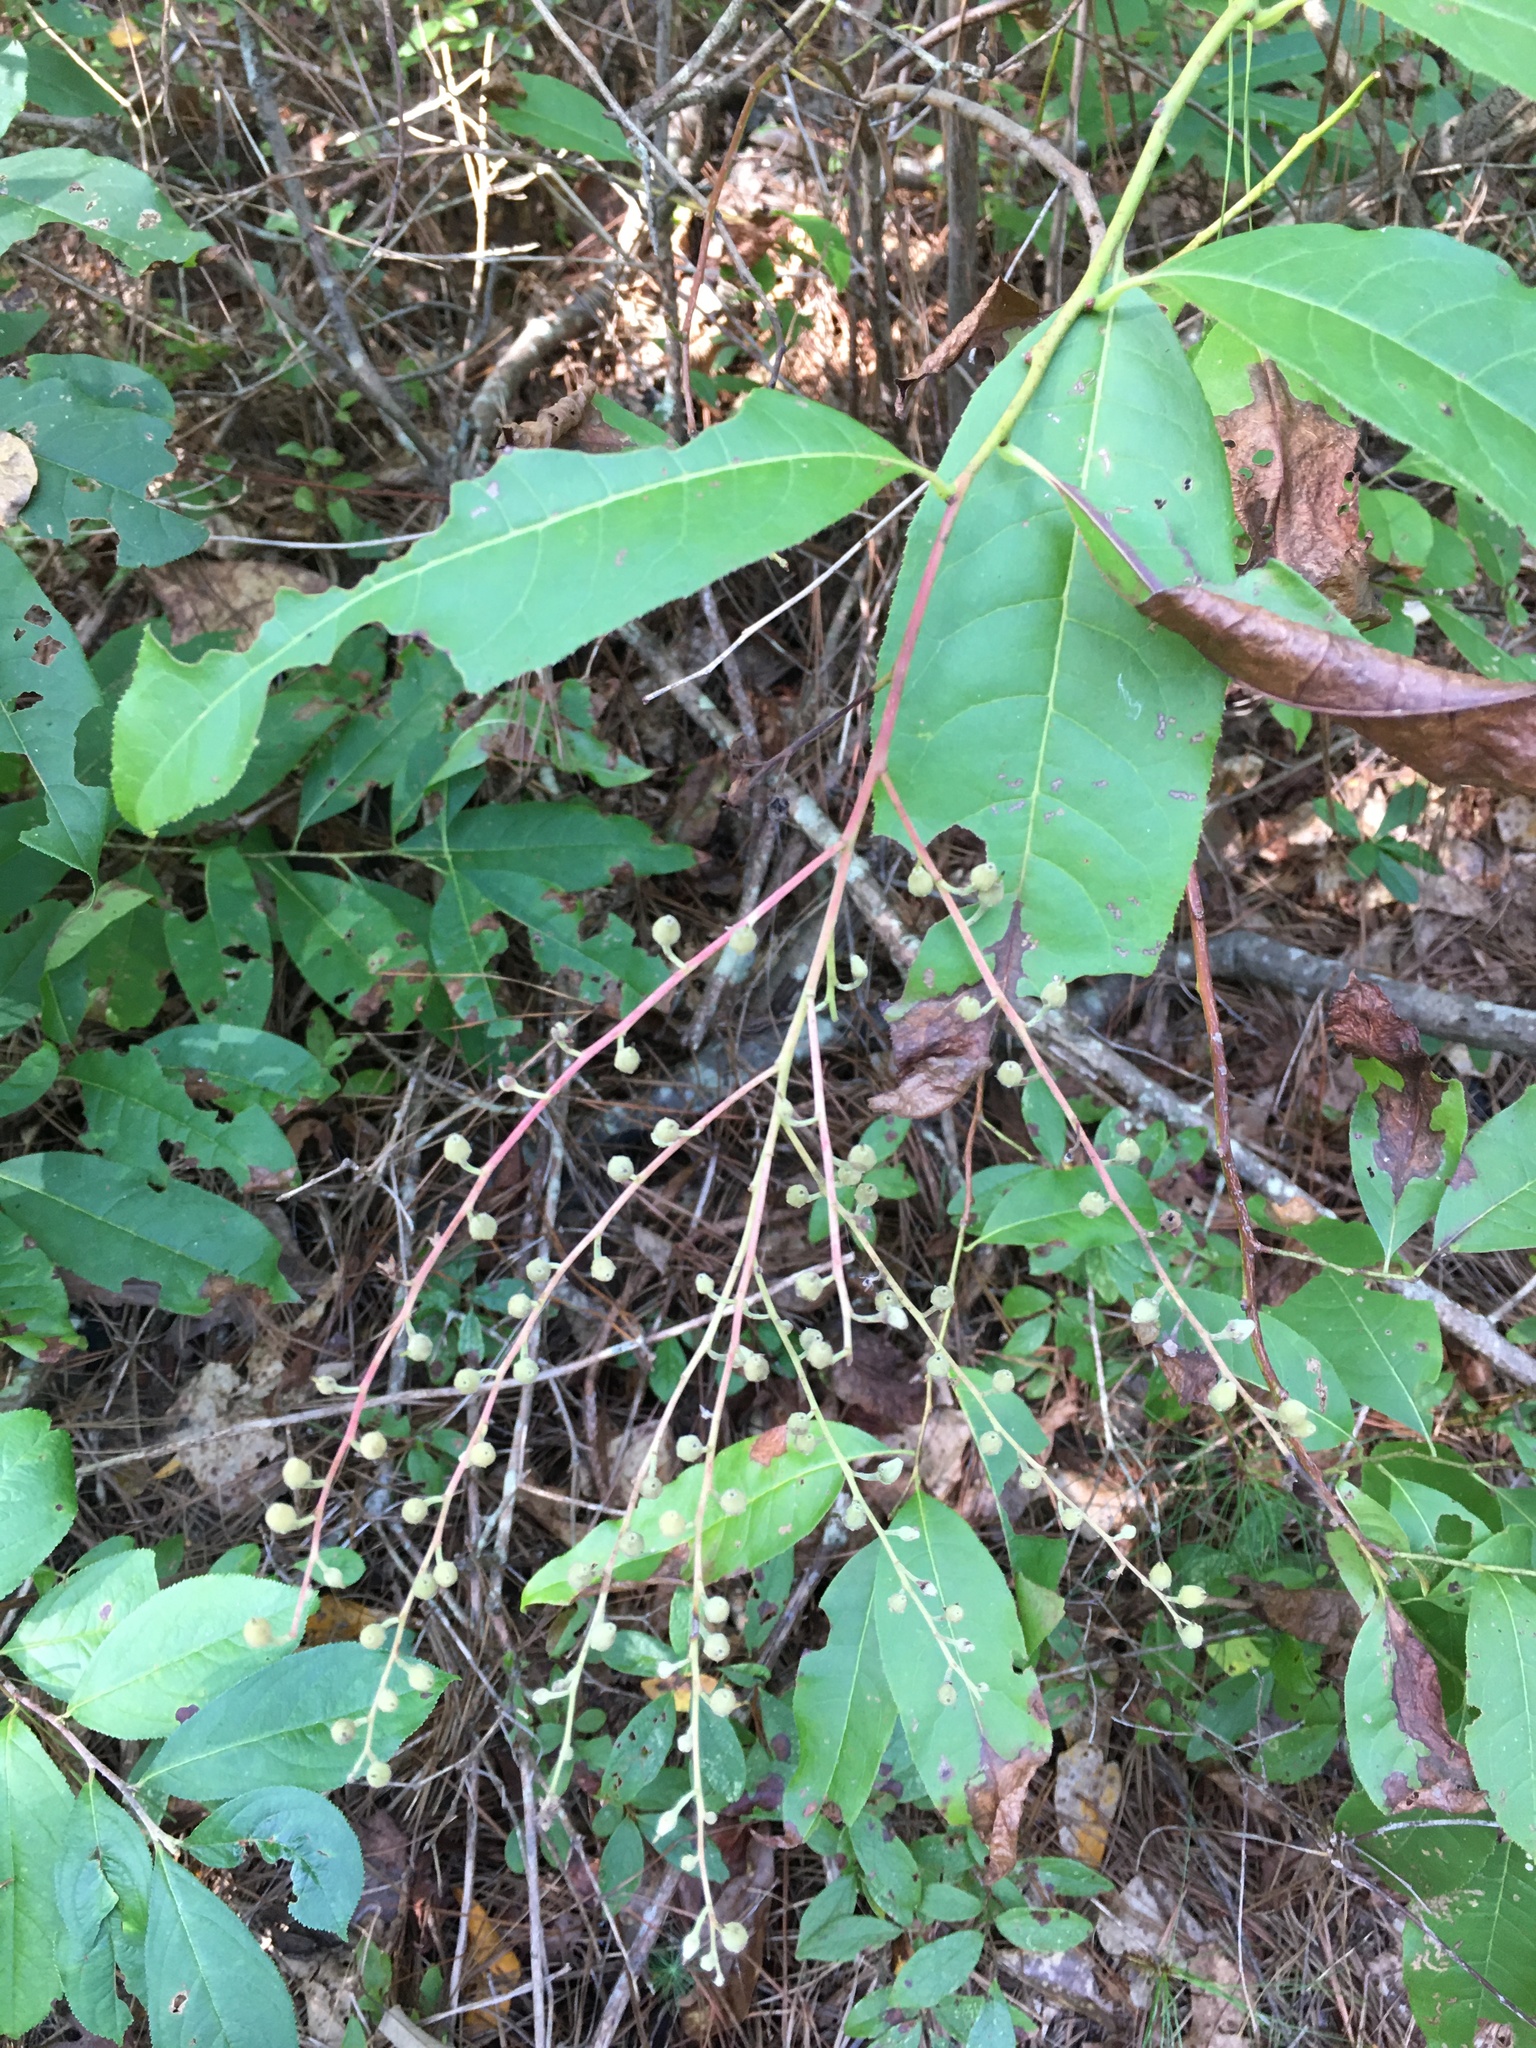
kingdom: Plantae
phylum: Tracheophyta
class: Magnoliopsida
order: Ericales
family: Ericaceae
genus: Oxydendrum
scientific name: Oxydendrum arboreum
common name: Sourwood
